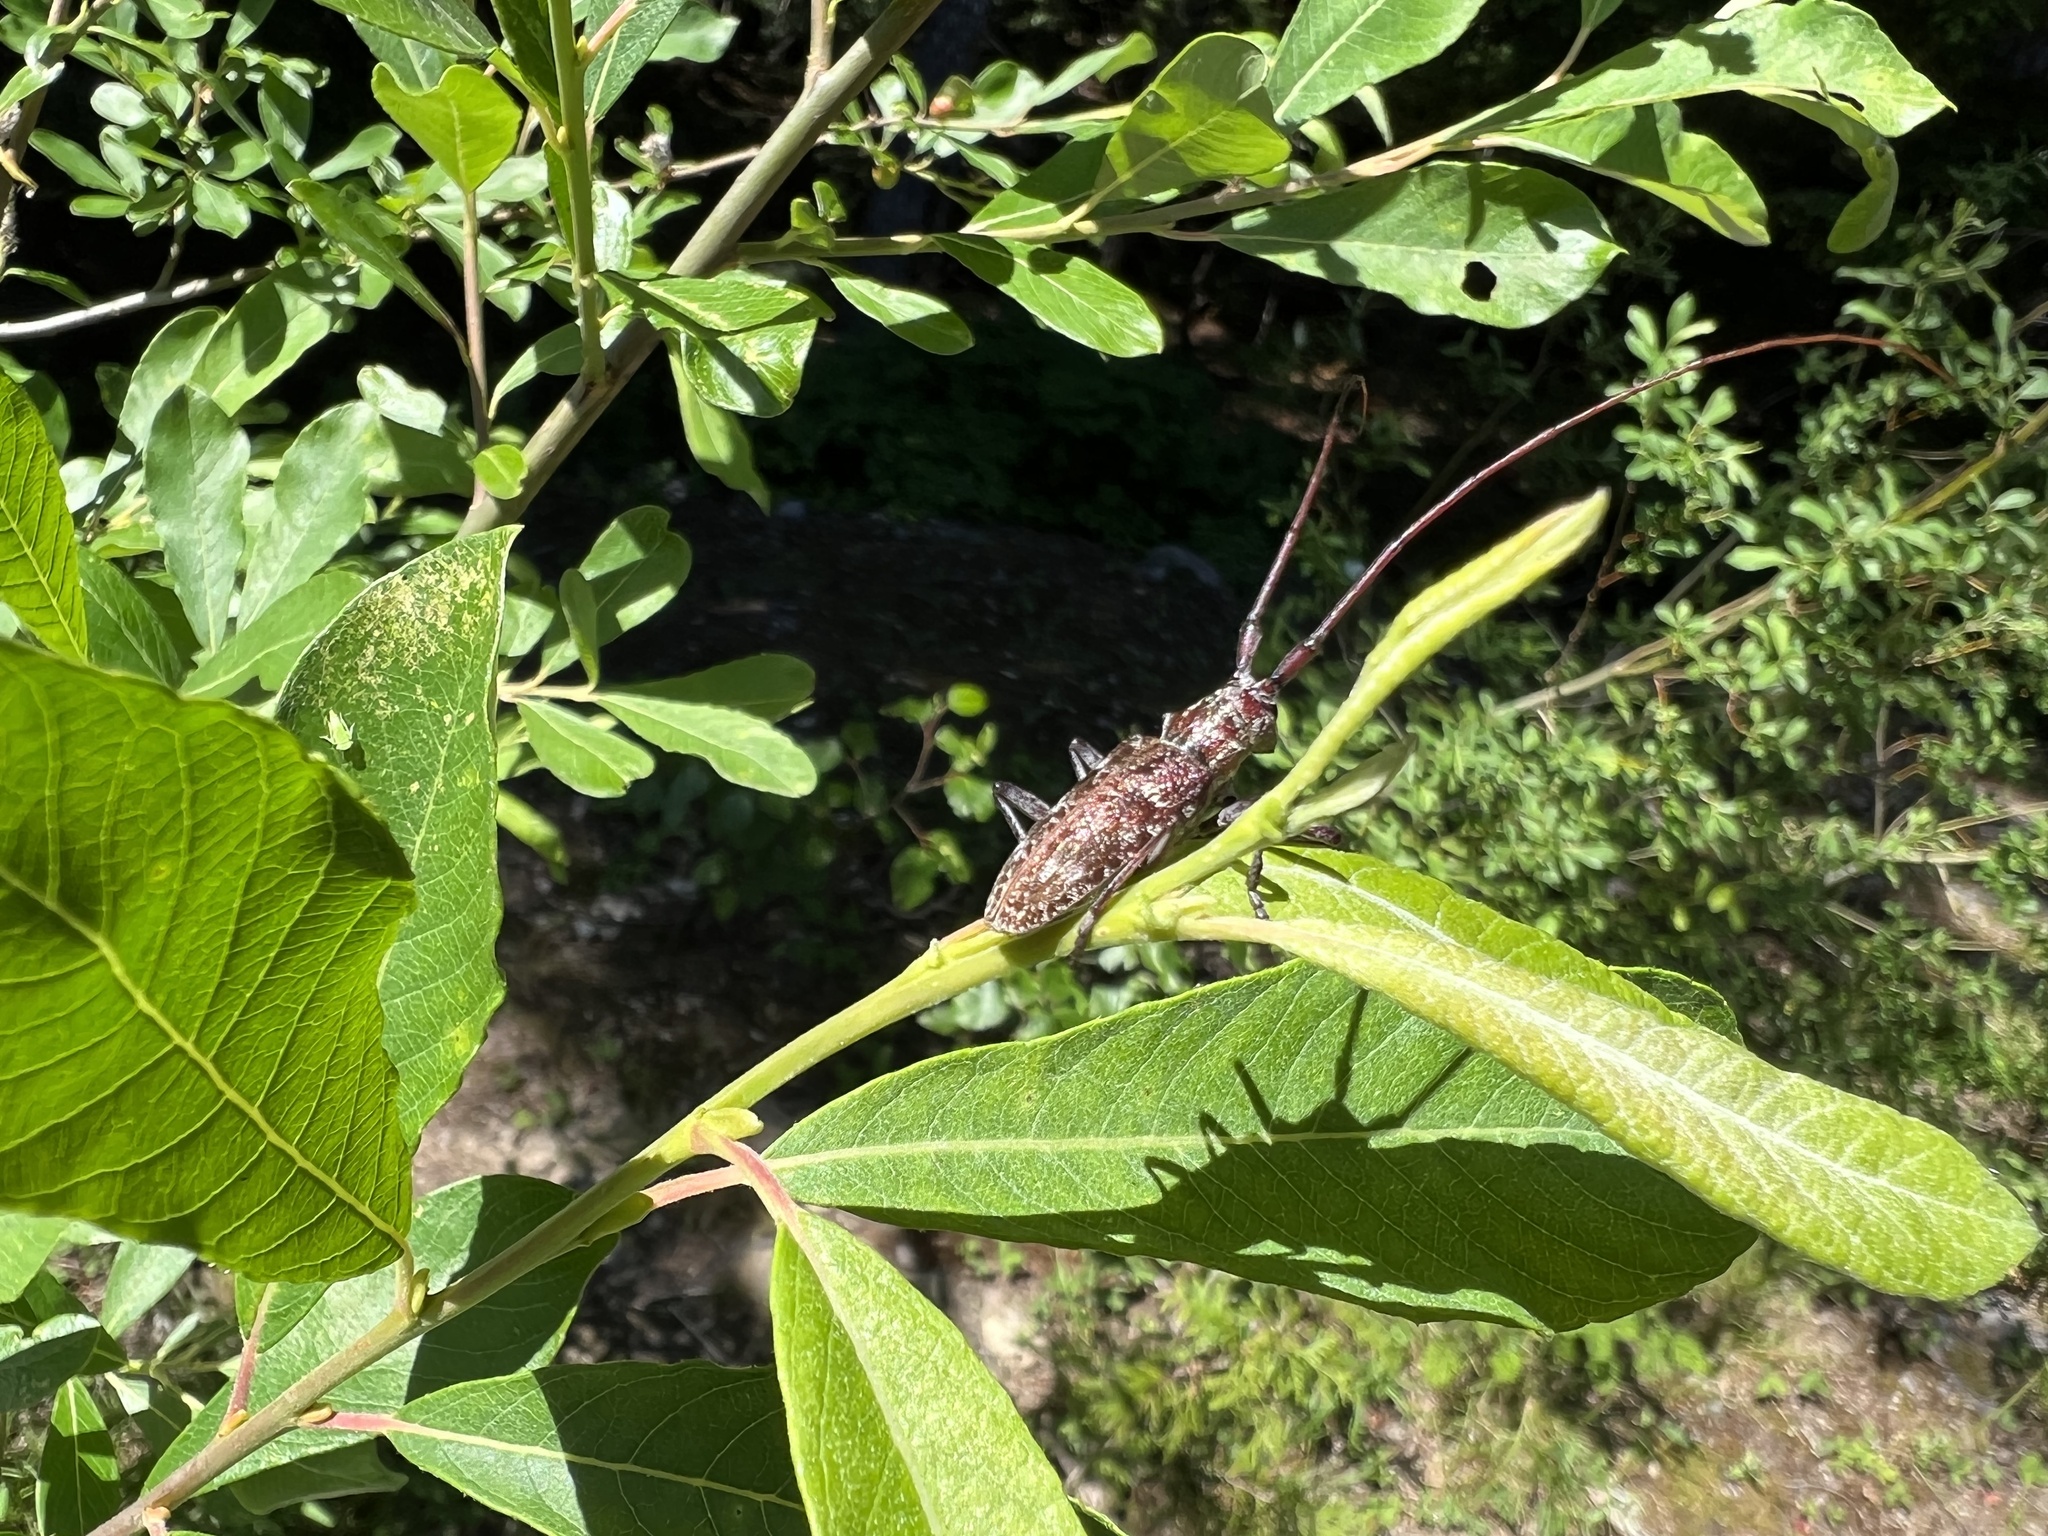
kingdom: Animalia
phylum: Arthropoda
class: Insecta
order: Coleoptera
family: Cerambycidae
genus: Monochamus
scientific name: Monochamus obtusus
